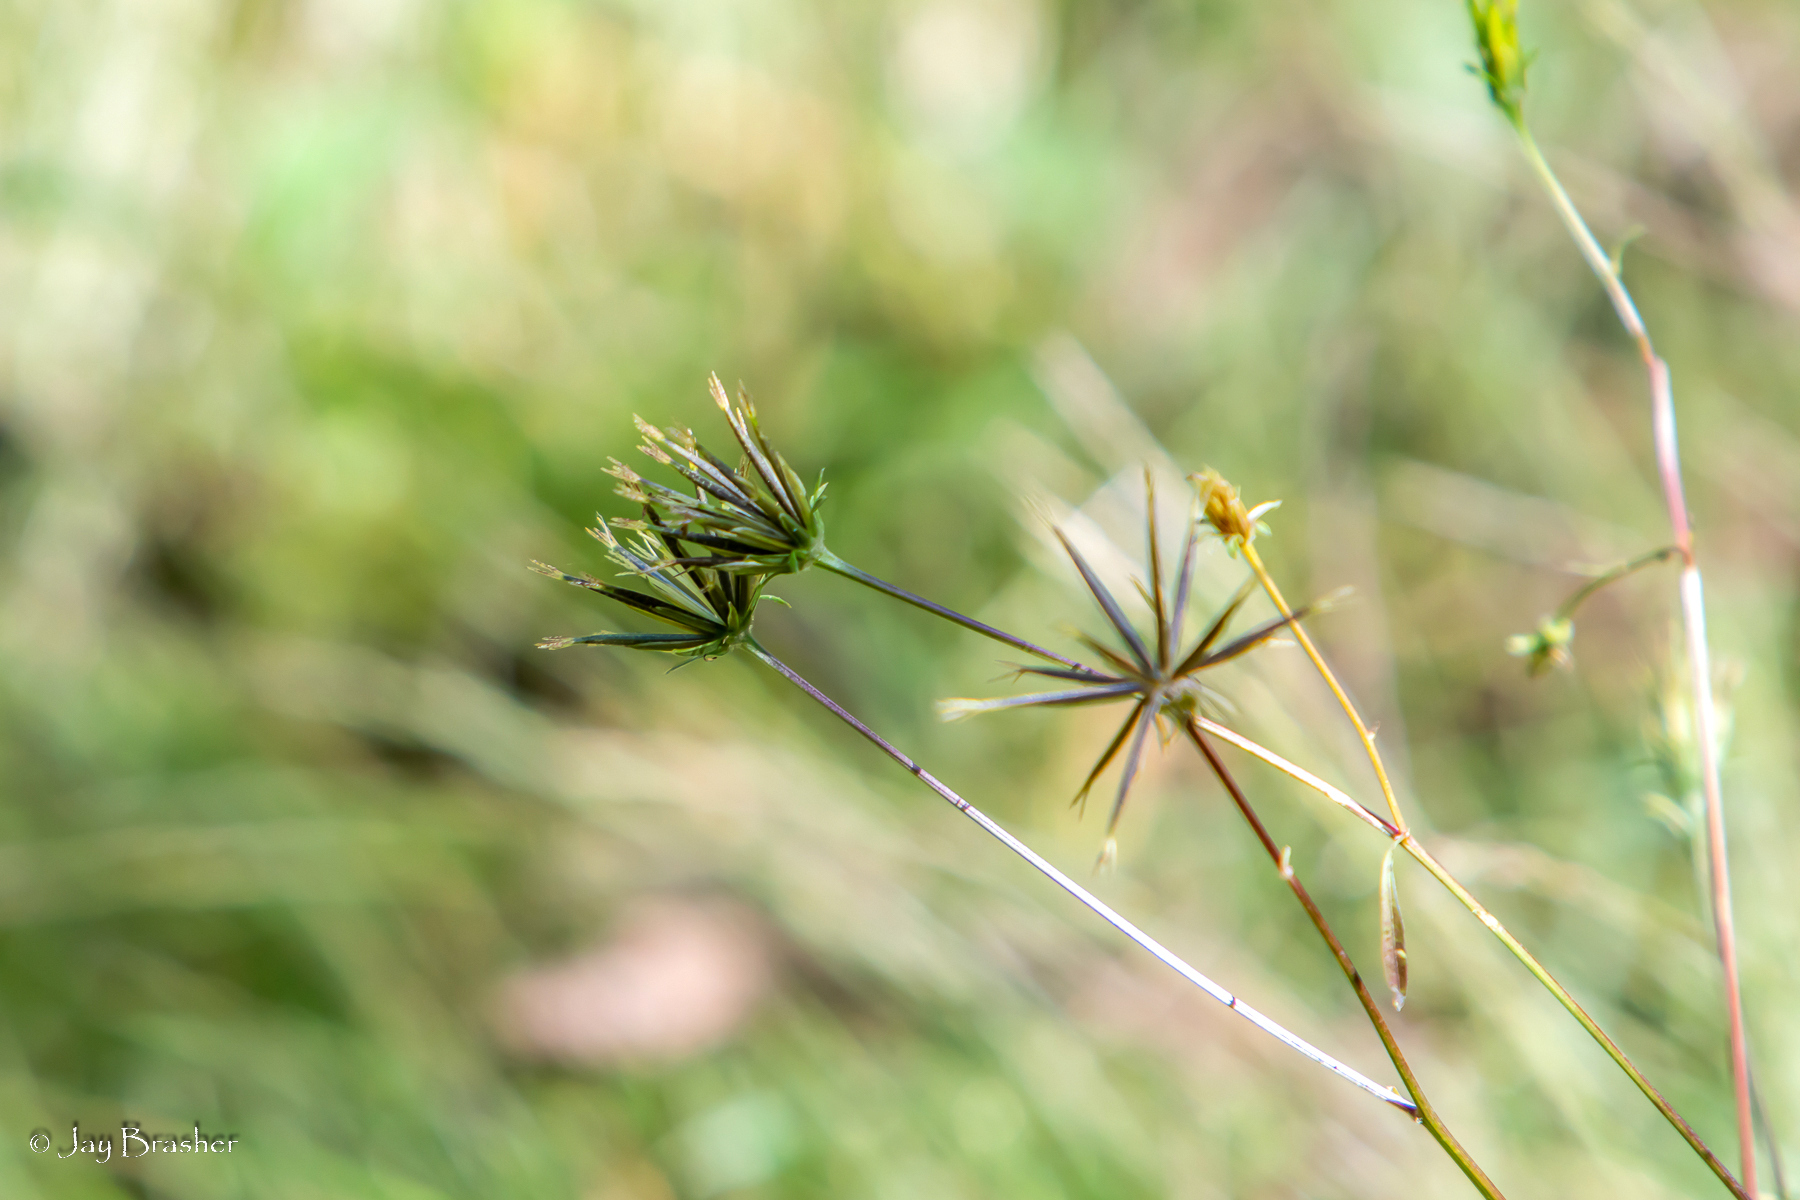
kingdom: Plantae
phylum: Tracheophyta
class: Magnoliopsida
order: Asterales
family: Asteraceae
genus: Bidens
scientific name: Bidens bipinnata
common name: Spanish-needles
